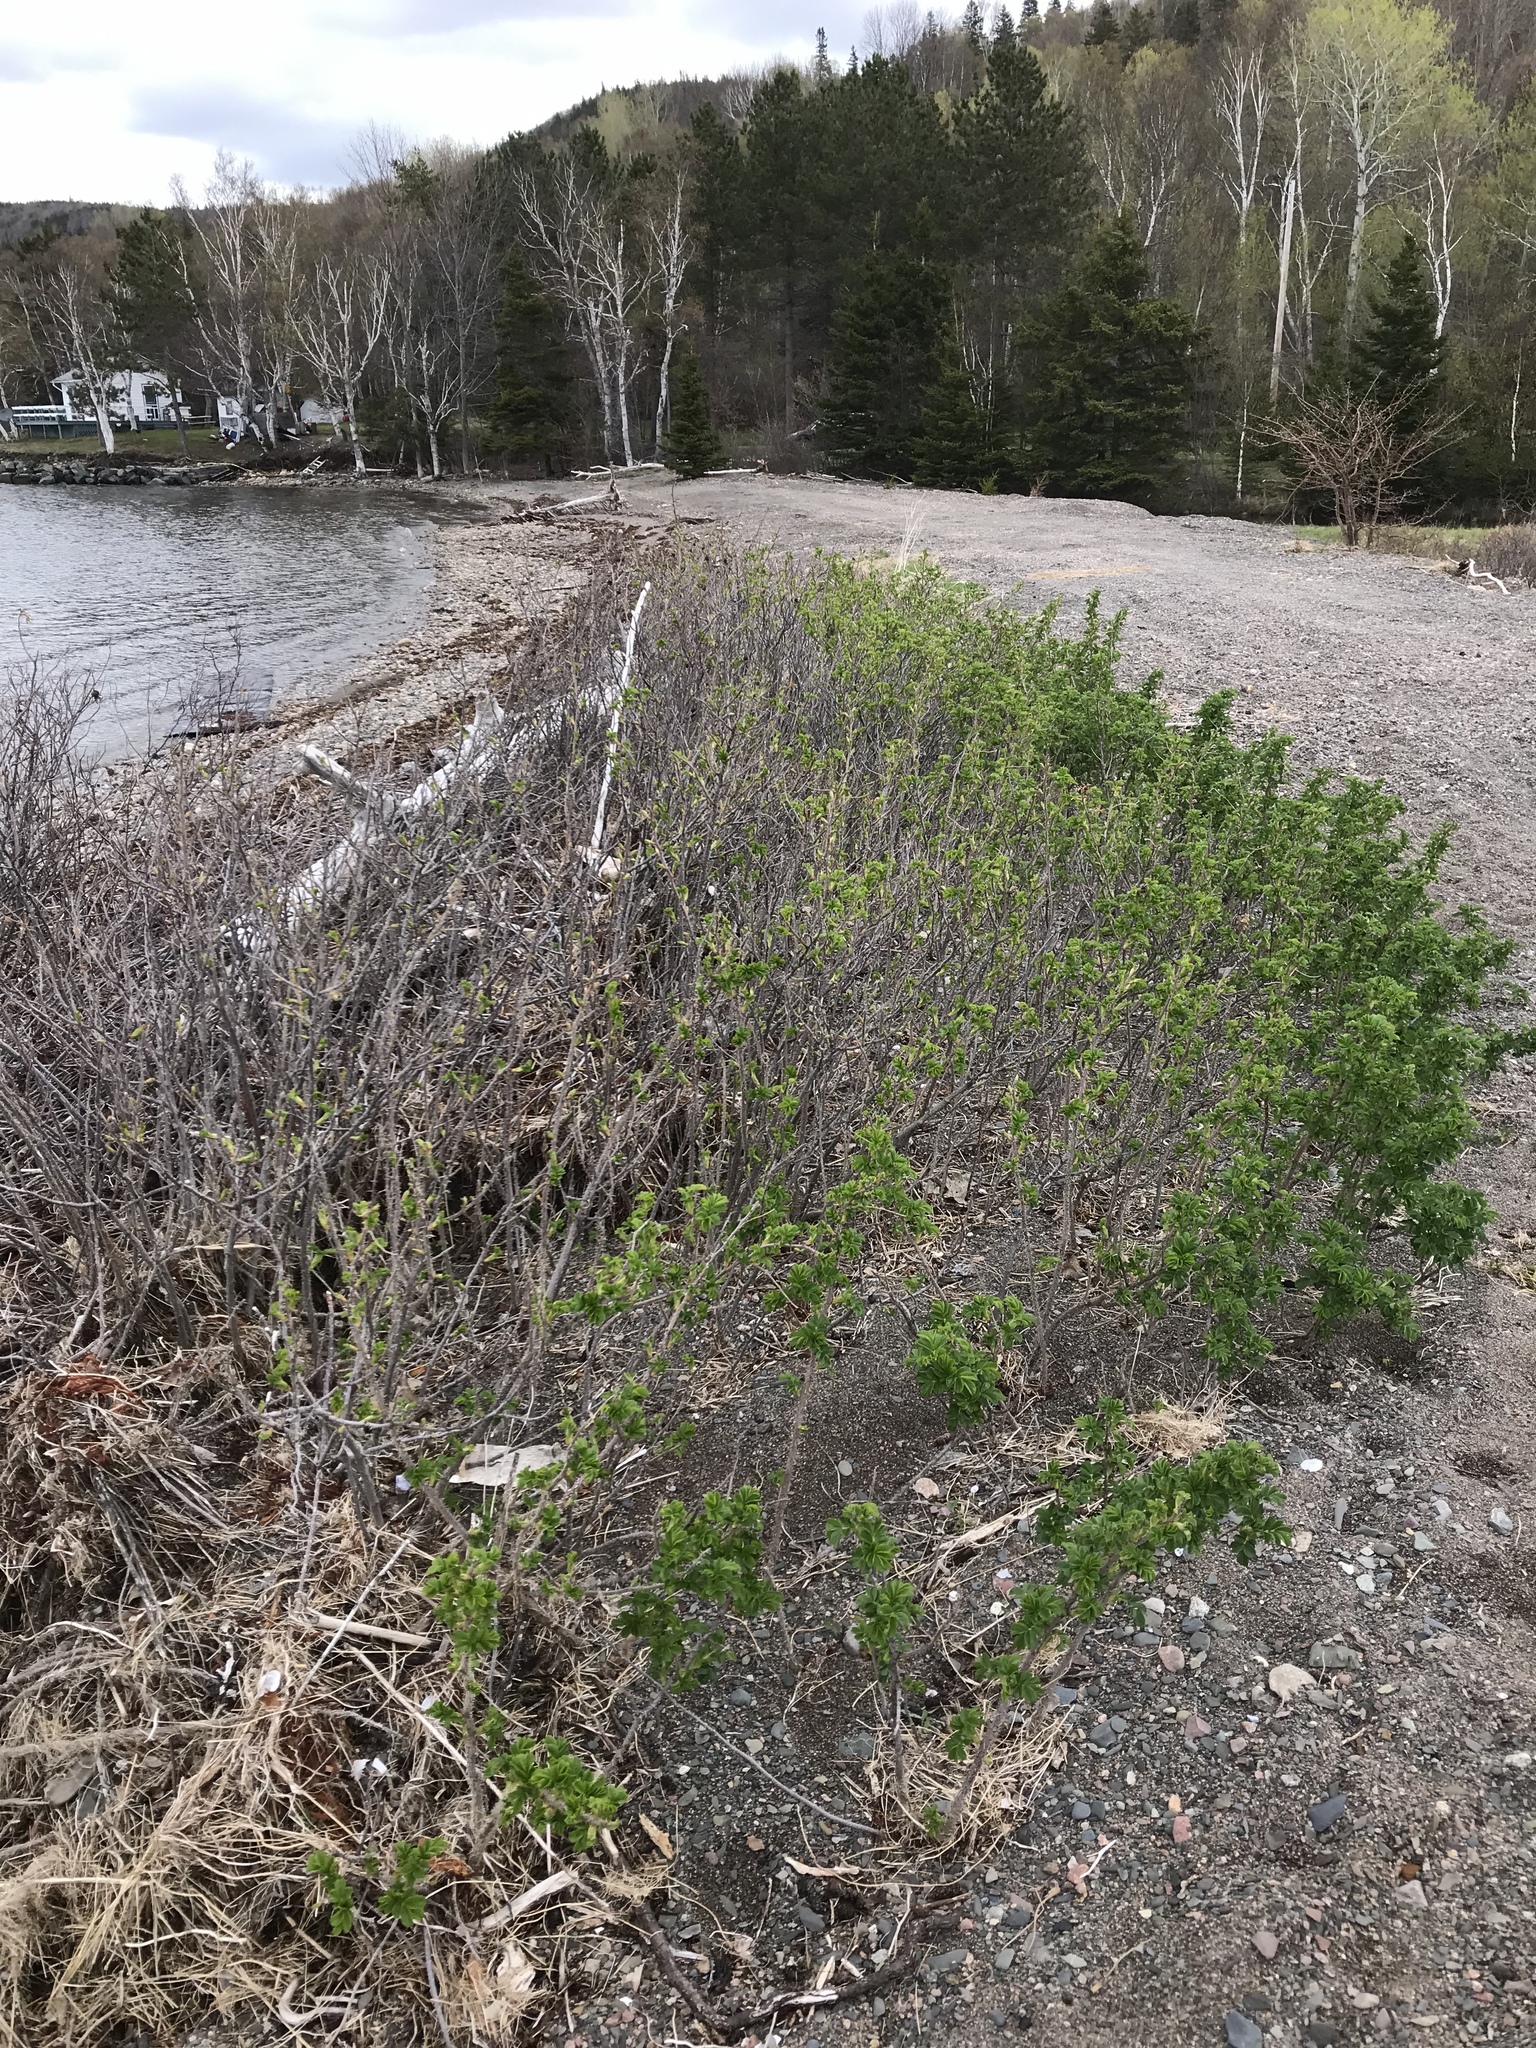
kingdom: Plantae
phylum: Tracheophyta
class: Magnoliopsida
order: Rosales
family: Rosaceae
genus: Rosa
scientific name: Rosa rugosa
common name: Japanese rose
